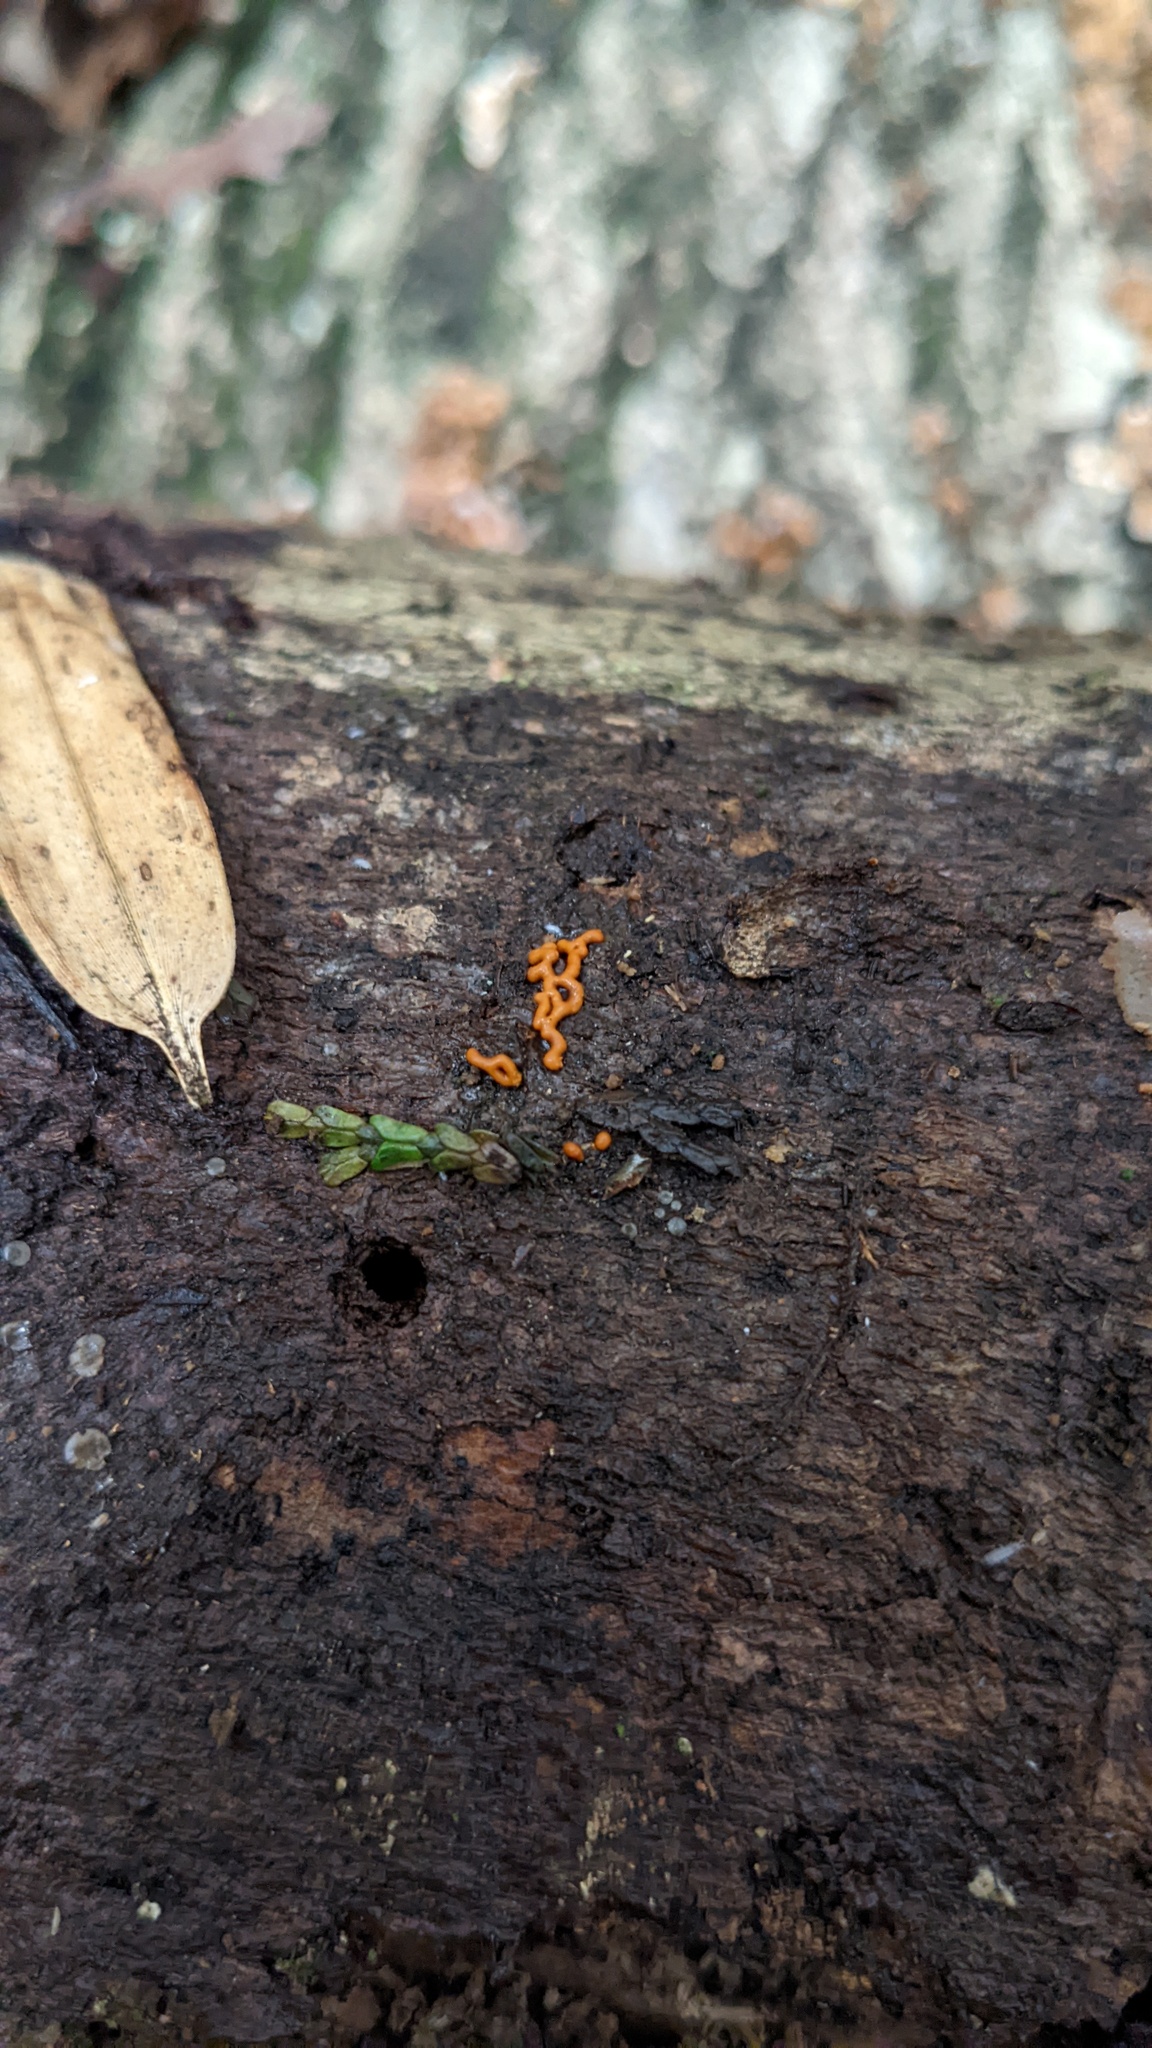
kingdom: Protozoa
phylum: Mycetozoa
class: Myxomycetes
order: Trichiales
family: Arcyriaceae
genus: Hemitrichia
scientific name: Hemitrichia serpula
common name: Pretzel slime mold
